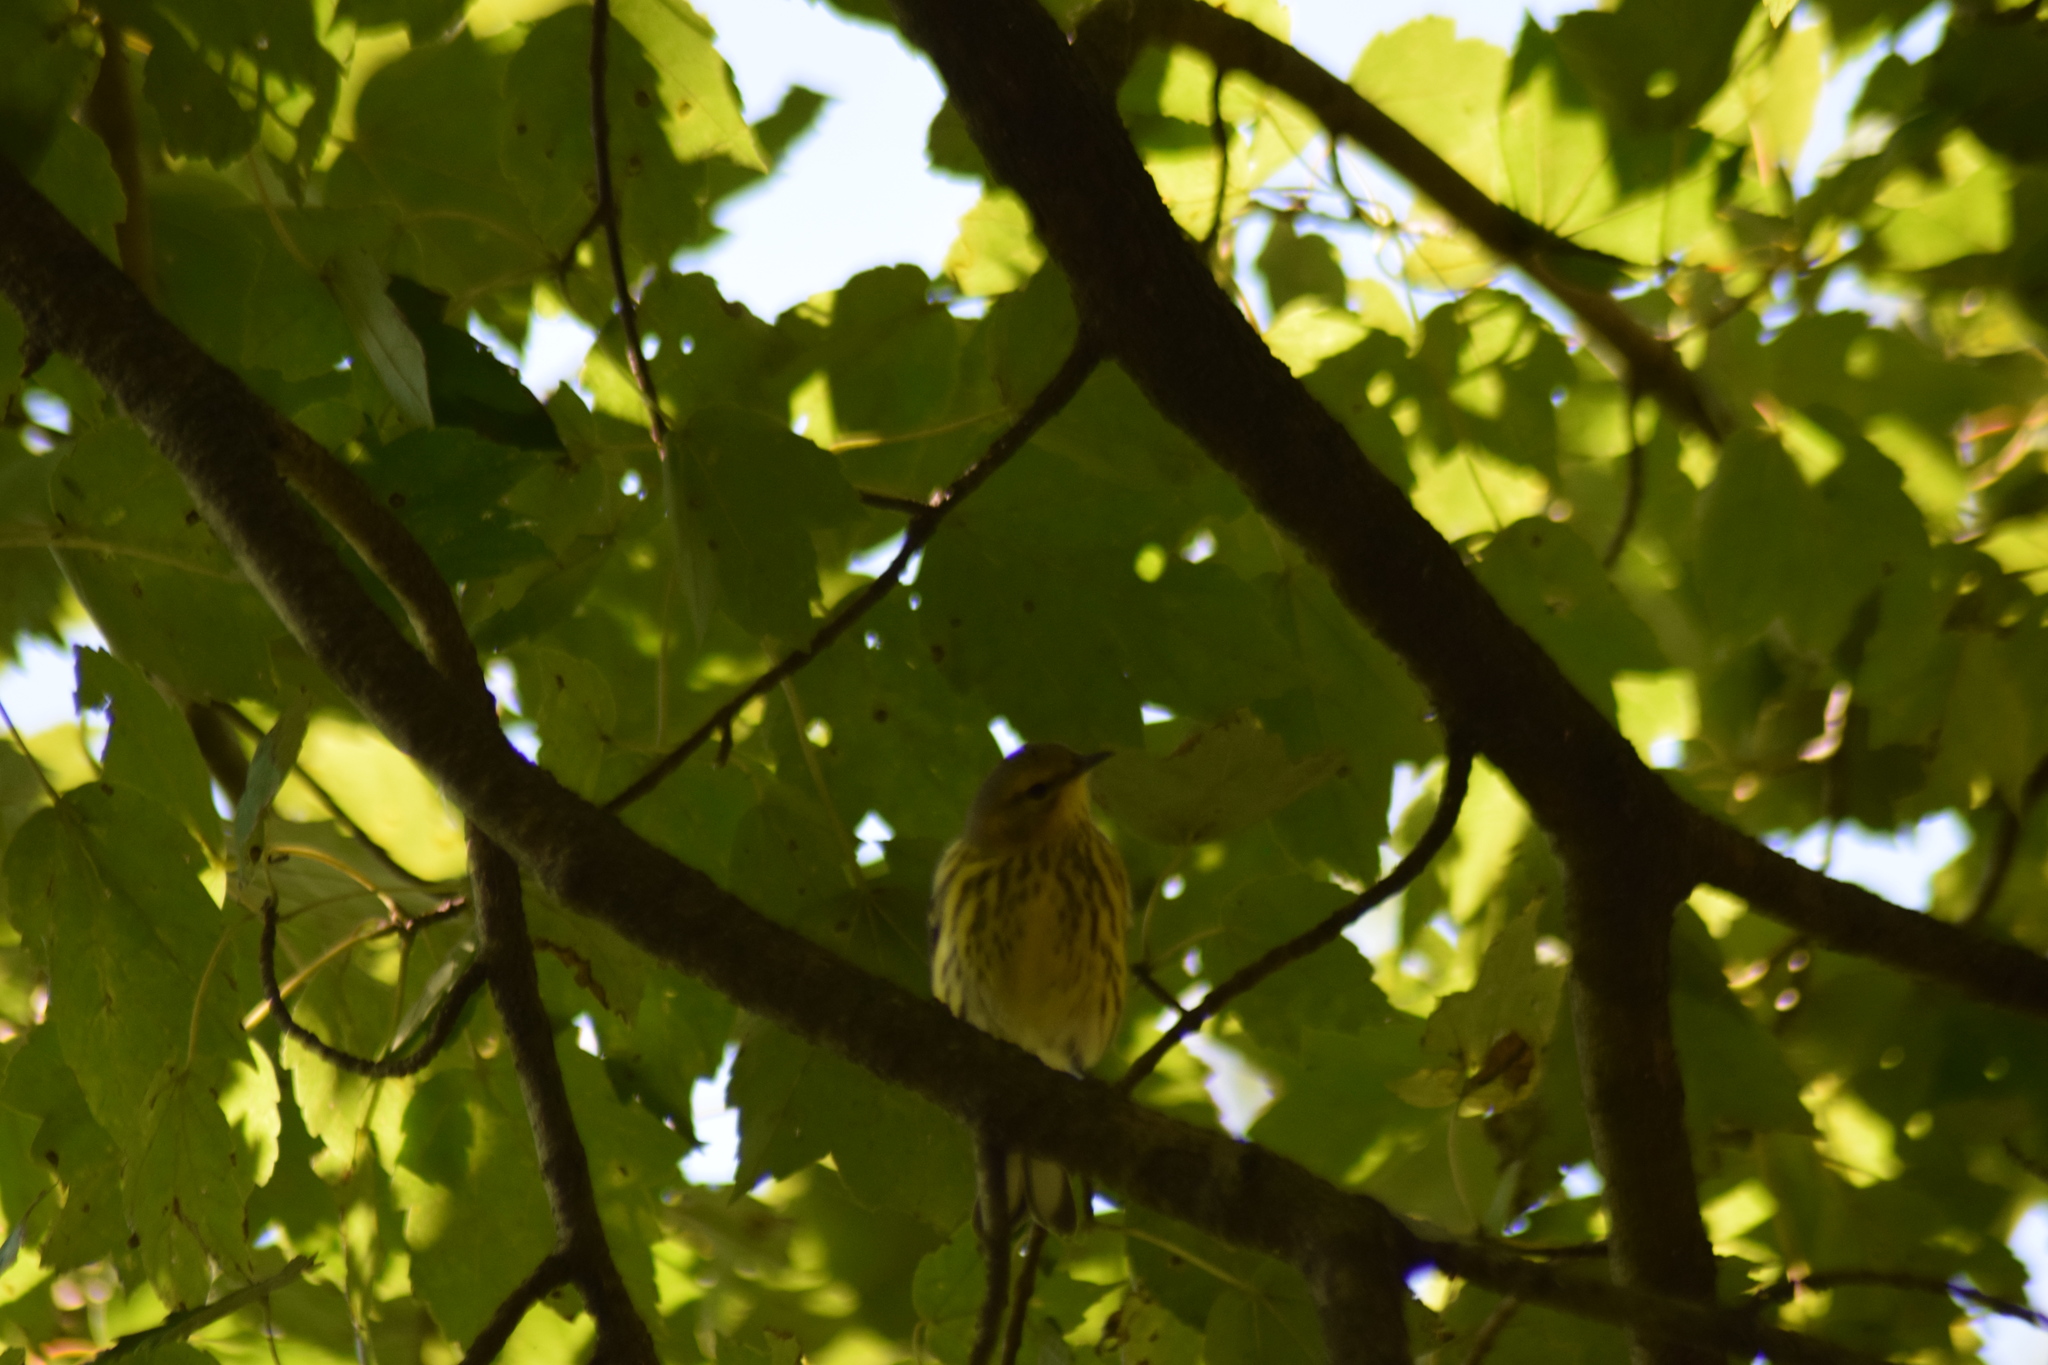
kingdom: Animalia
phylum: Chordata
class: Aves
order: Passeriformes
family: Parulidae
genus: Setophaga
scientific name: Setophaga tigrina
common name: Cape may warbler
